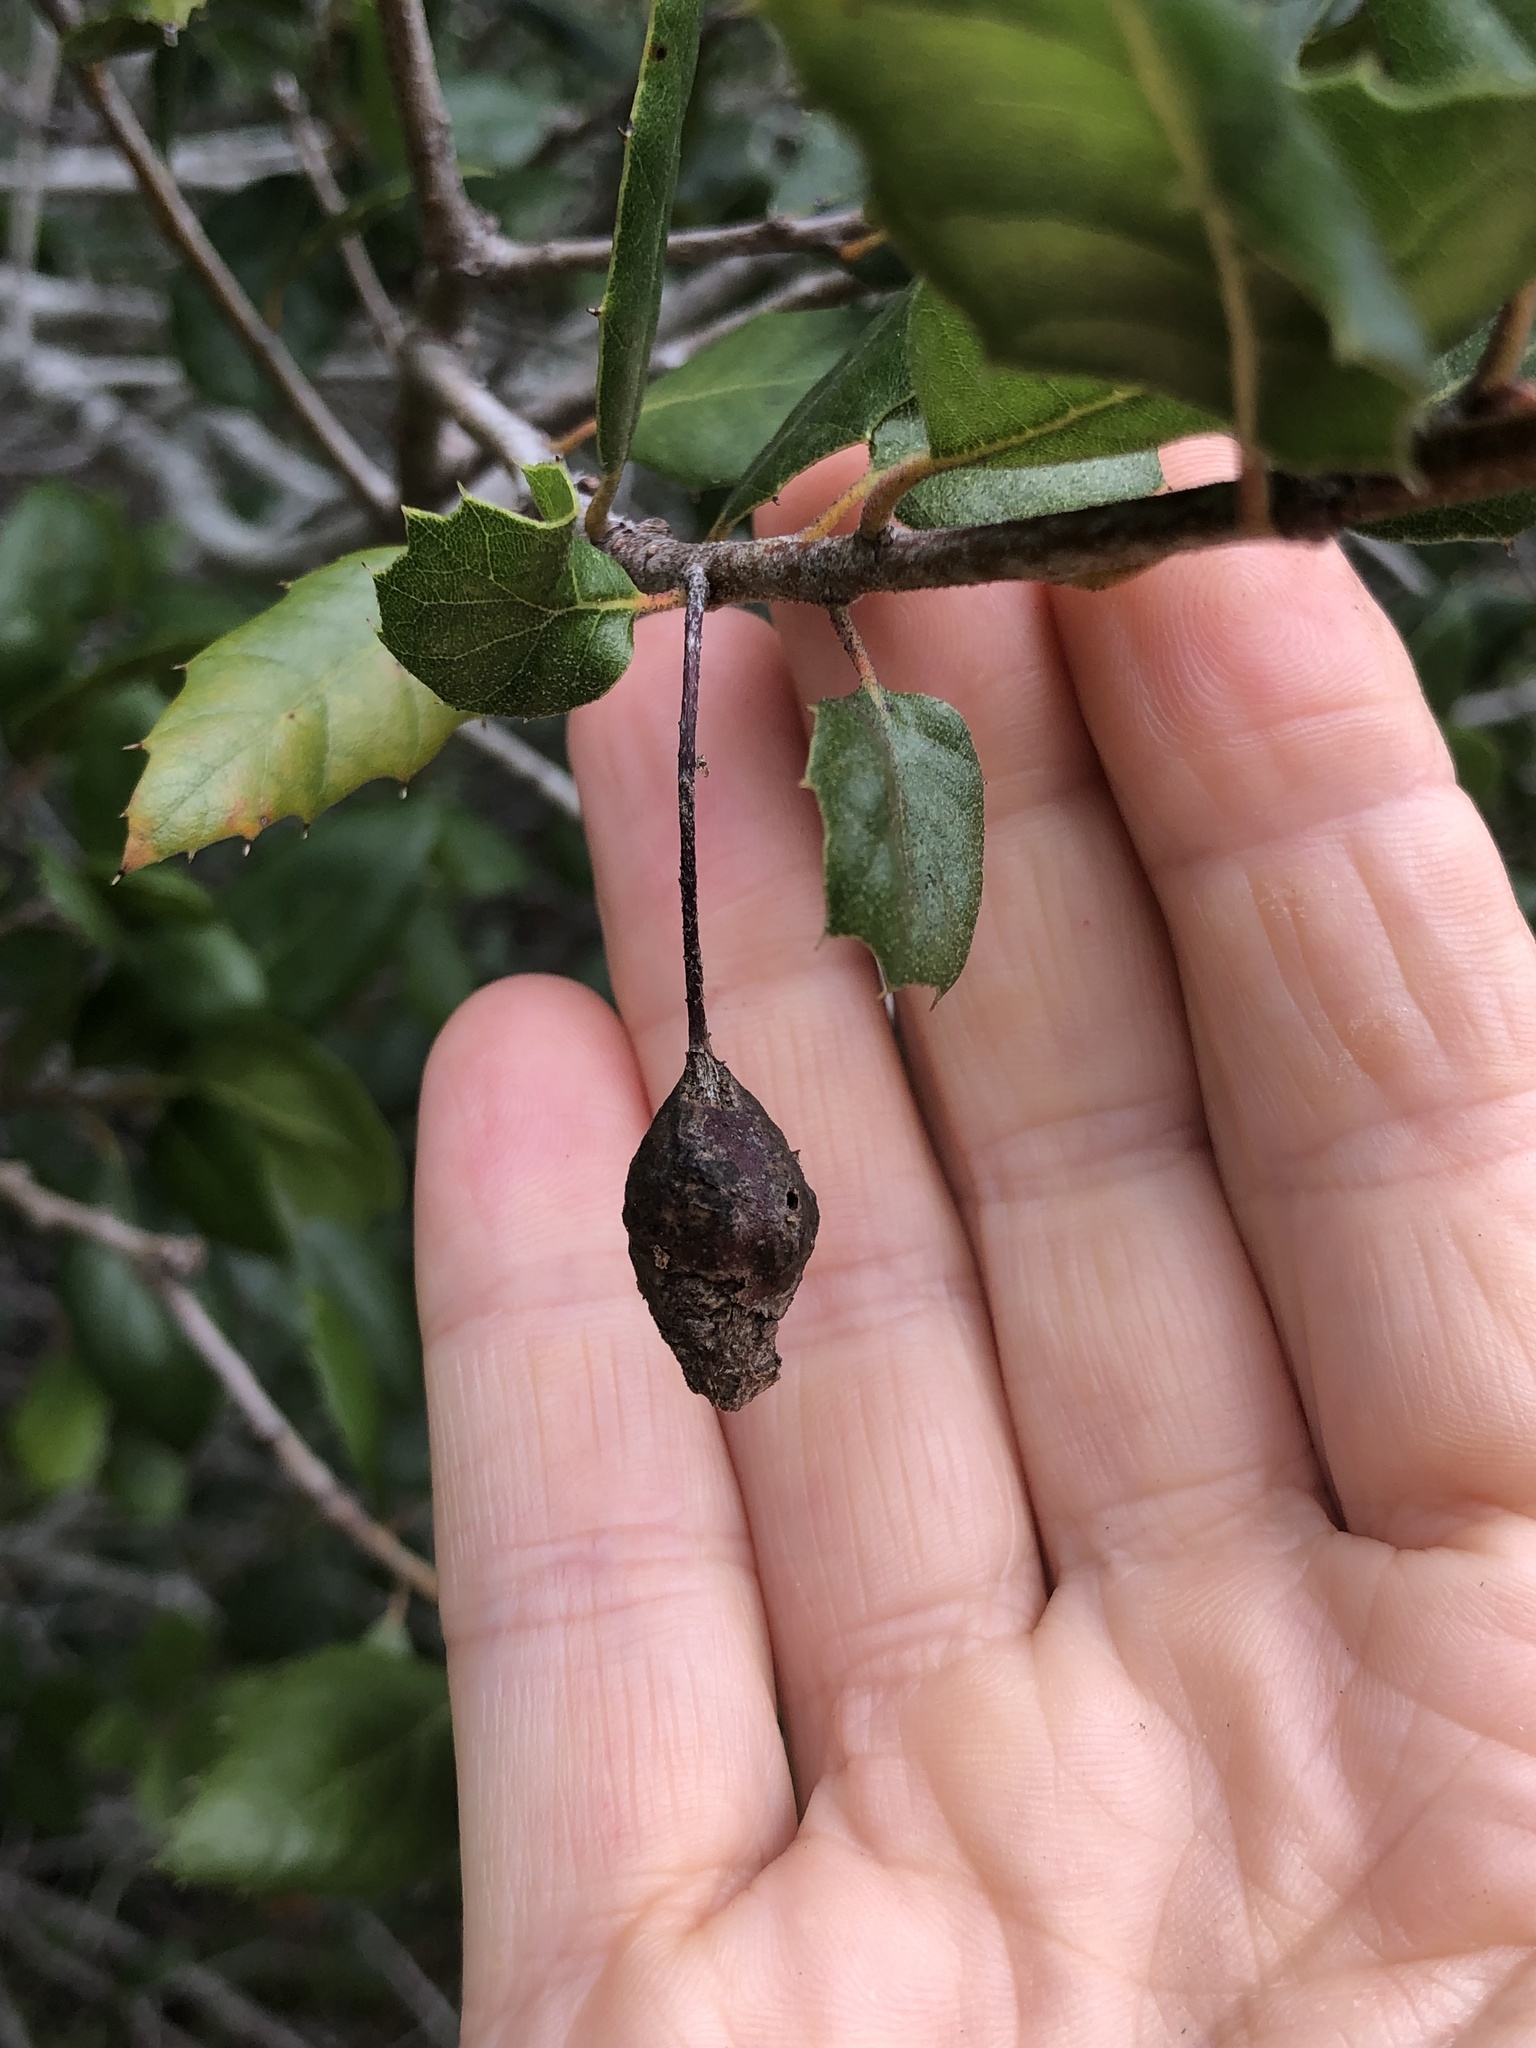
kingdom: Animalia
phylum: Arthropoda
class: Insecta
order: Hymenoptera
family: Cynipidae
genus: Callirhytis
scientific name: Callirhytis
